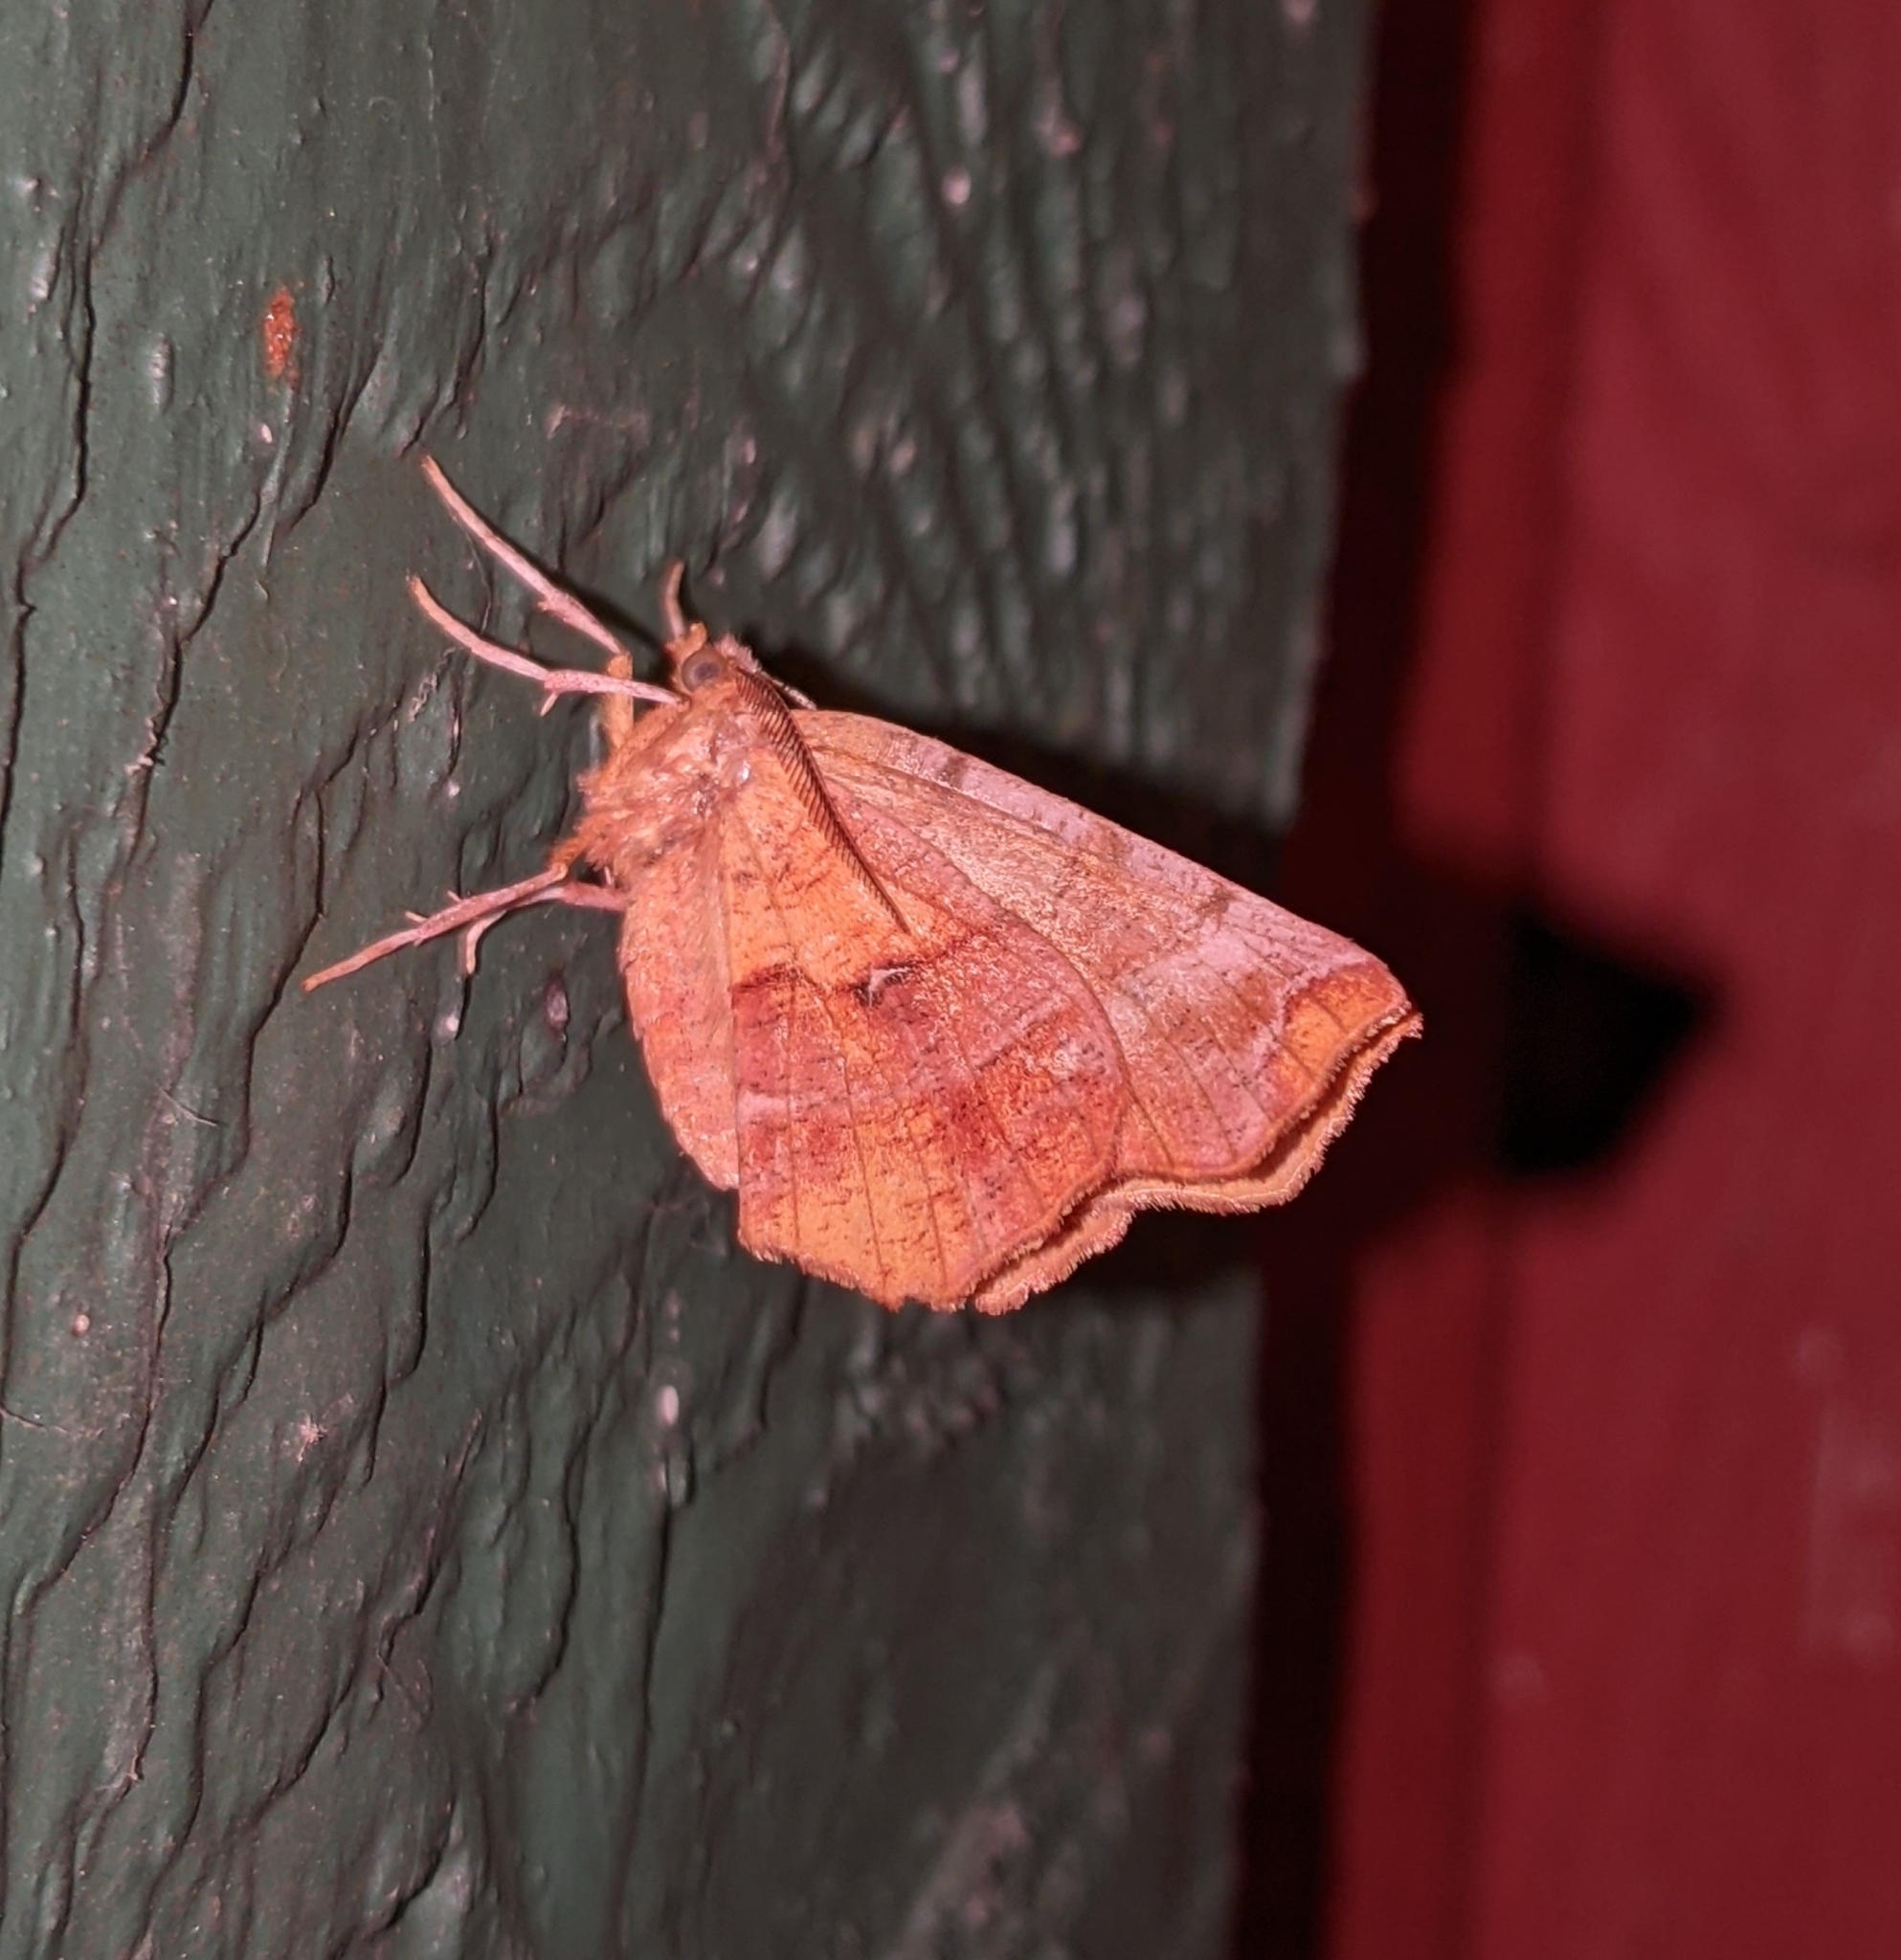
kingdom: Animalia
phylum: Arthropoda
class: Insecta
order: Lepidoptera
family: Geometridae
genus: Selenia
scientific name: Selenia alciphearia
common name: Brown-tipped thorn
